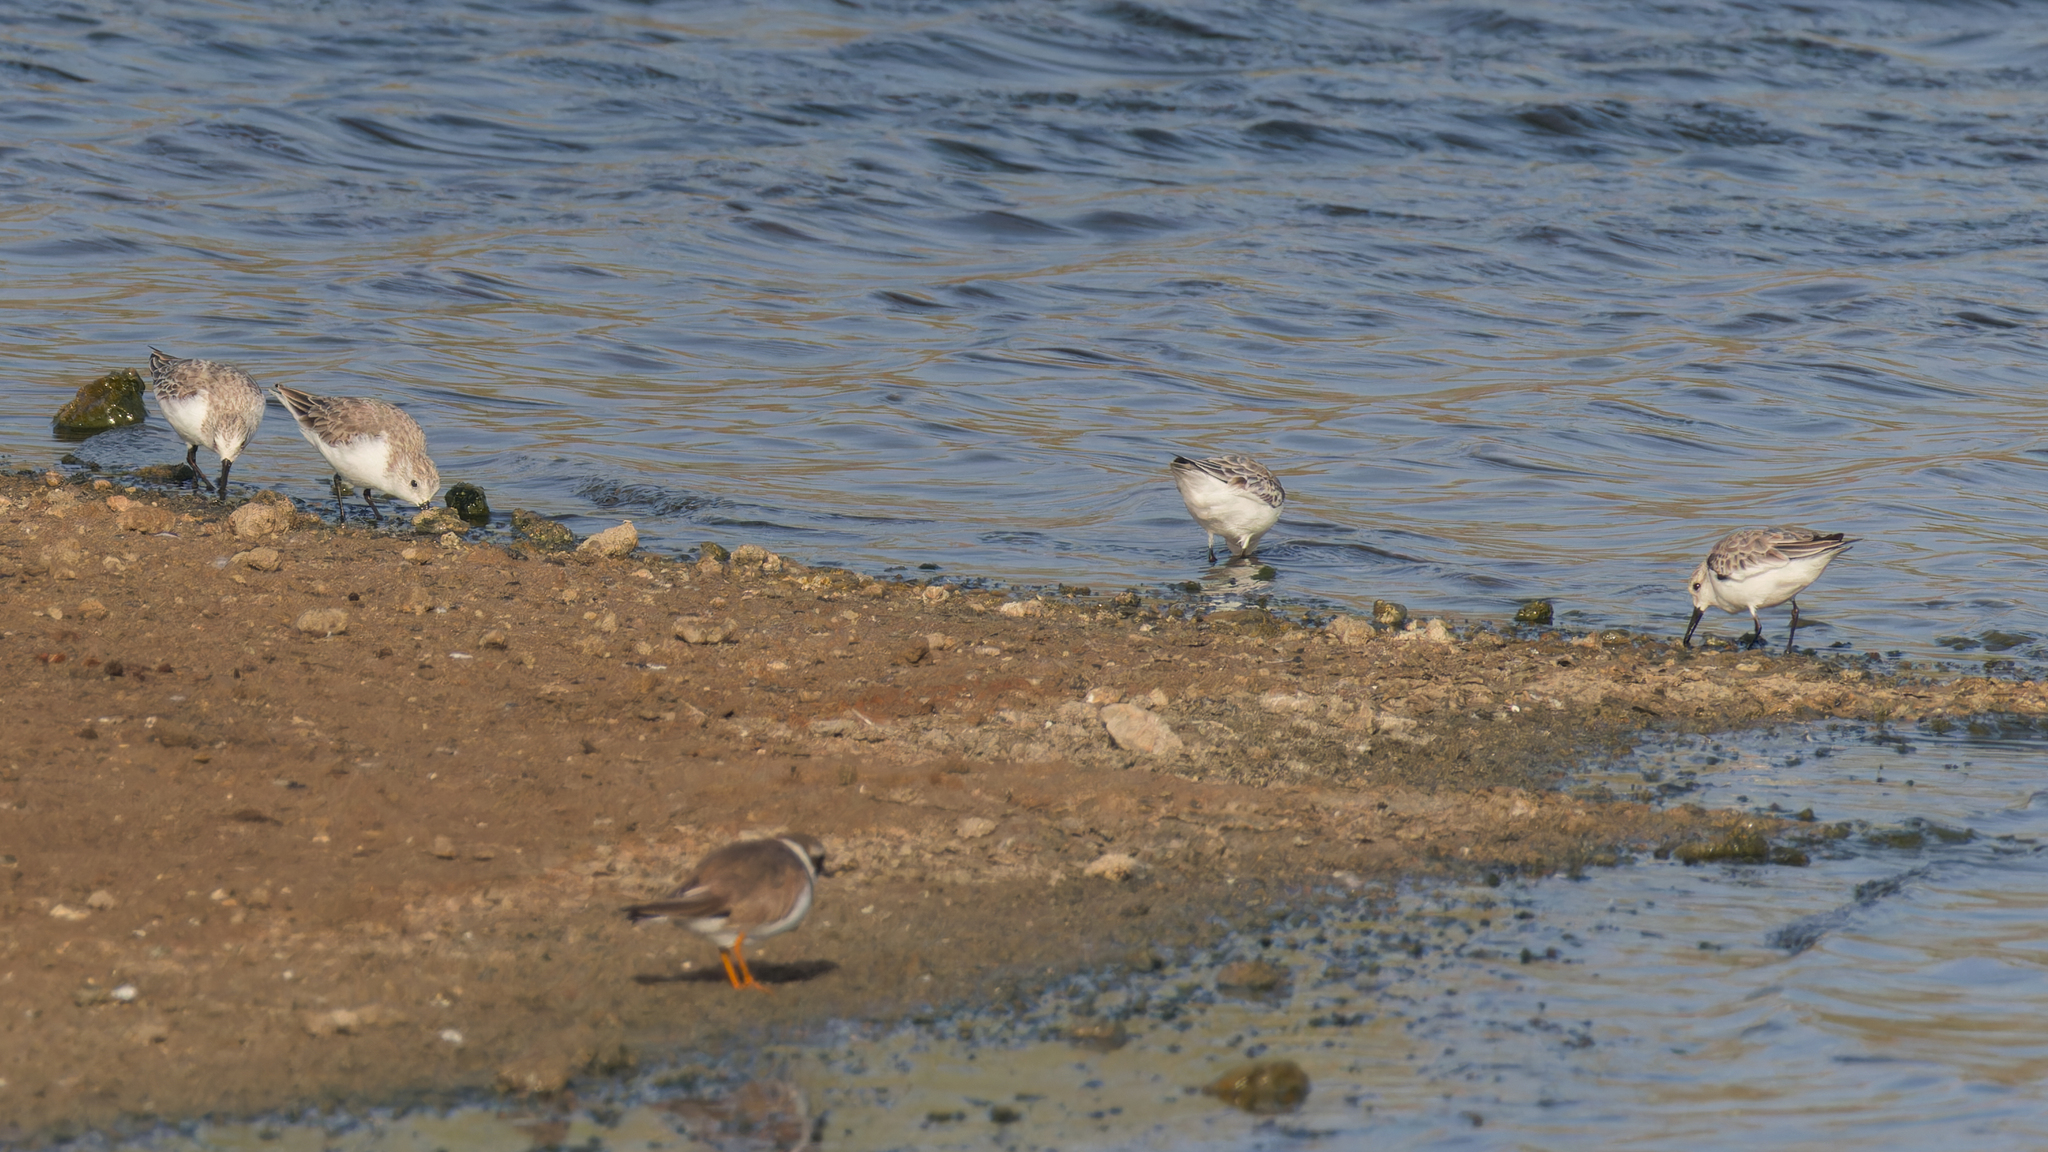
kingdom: Animalia
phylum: Chordata
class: Aves
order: Charadriiformes
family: Scolopacidae
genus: Calidris
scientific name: Calidris alba
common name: Sanderling
